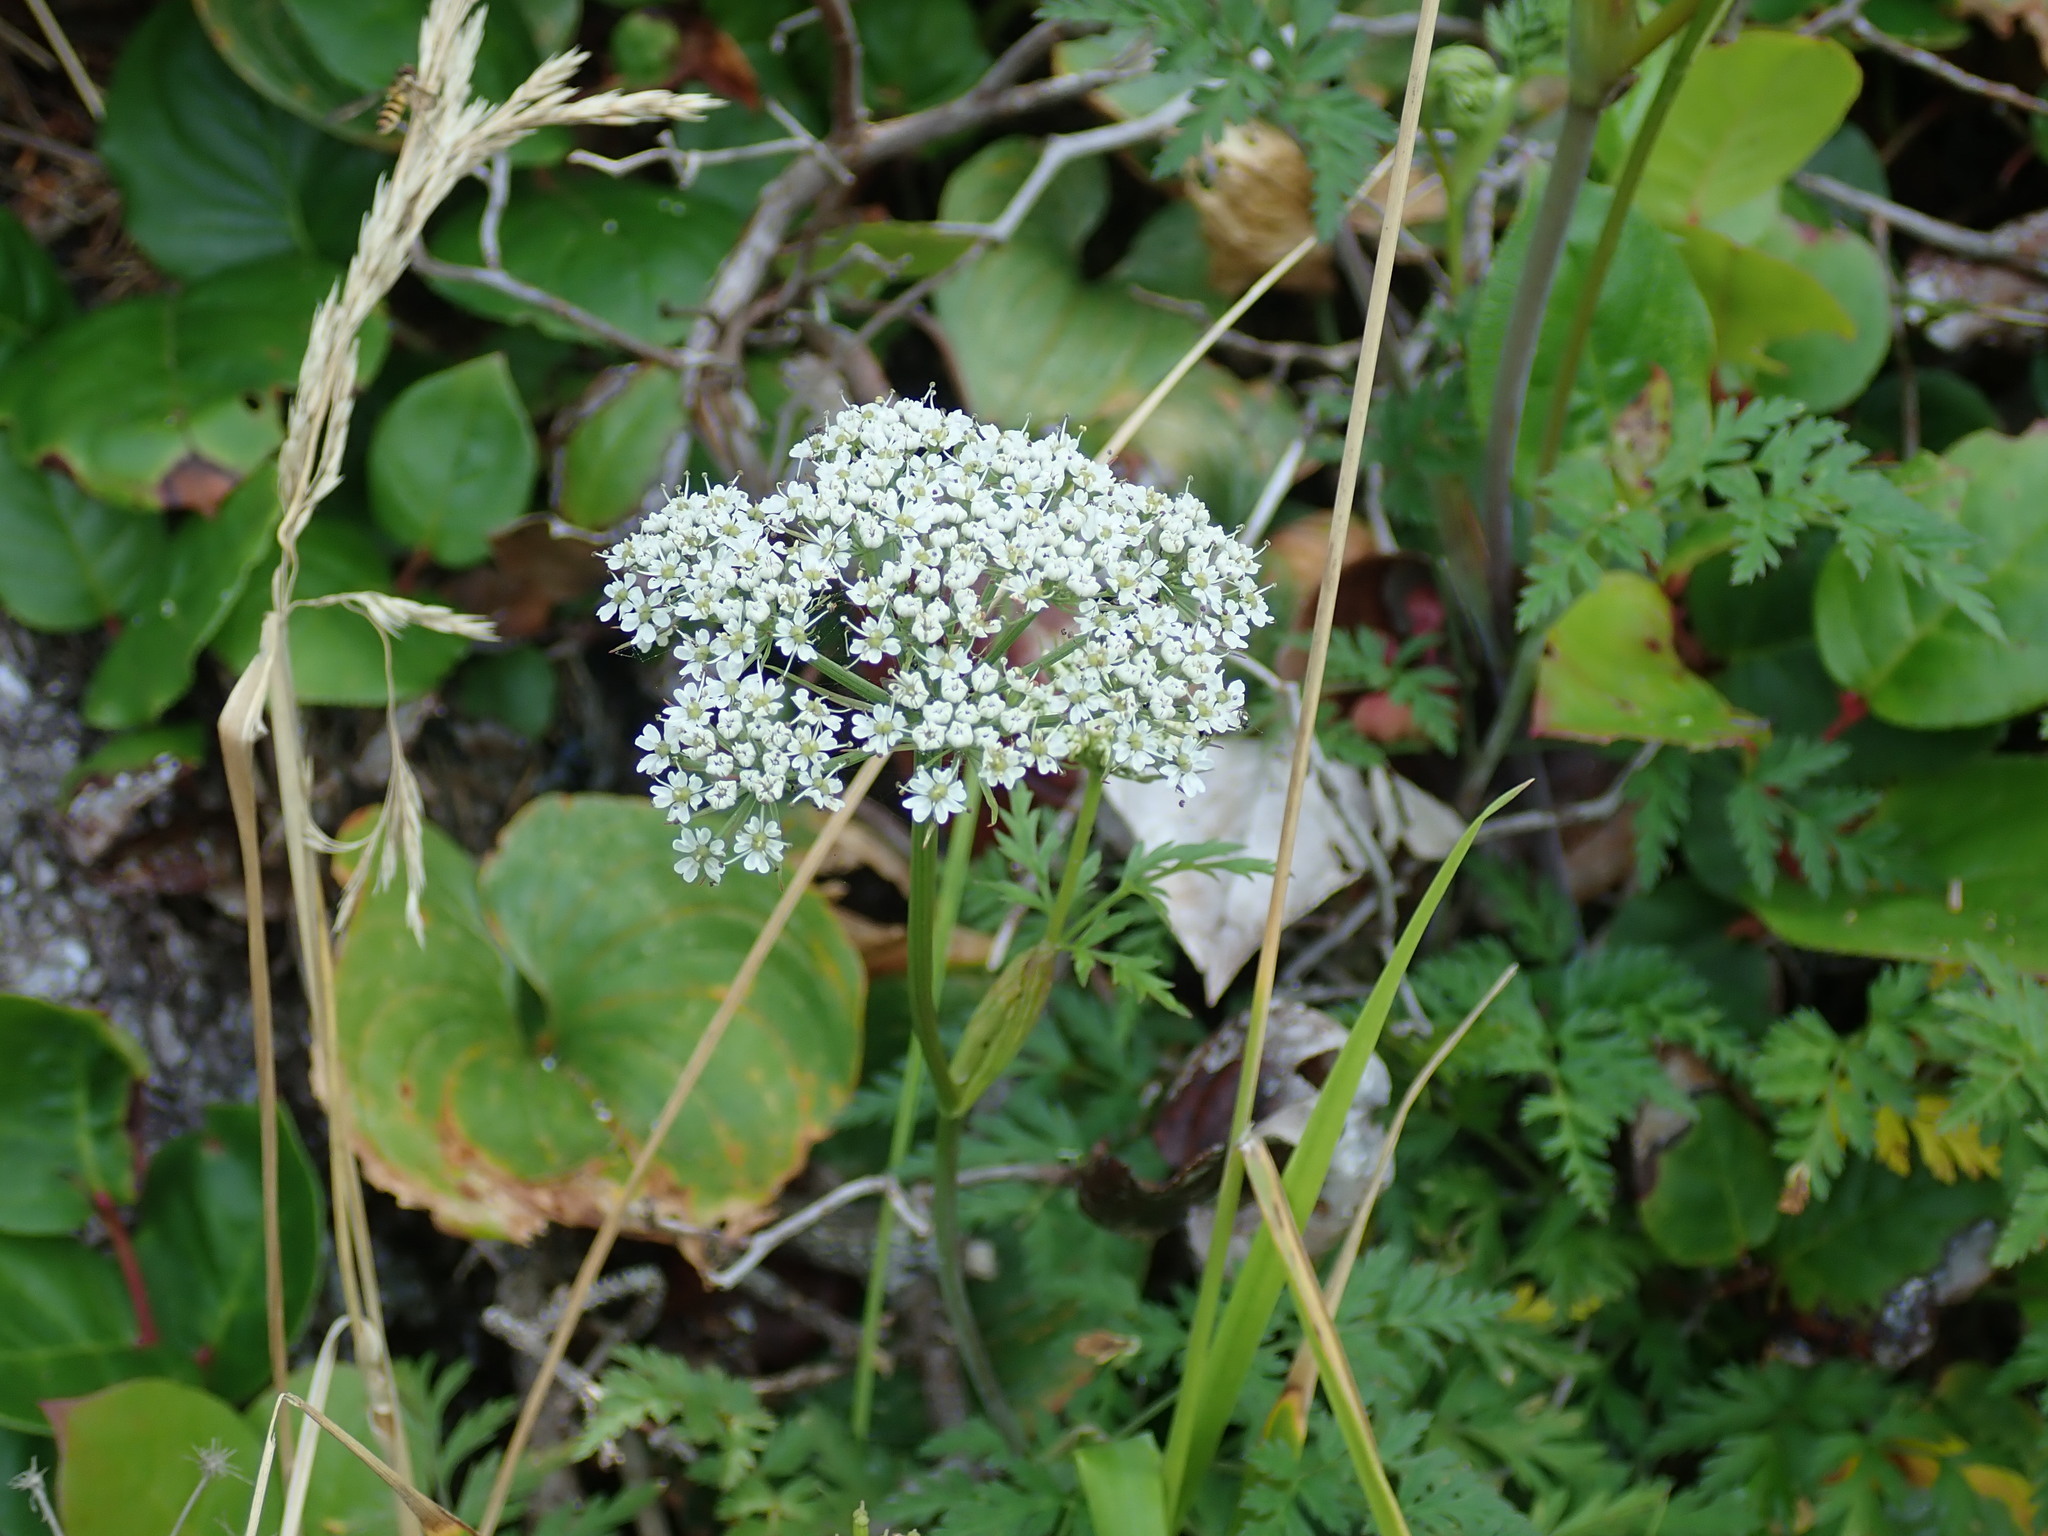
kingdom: Plantae
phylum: Tracheophyta
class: Magnoliopsida
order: Apiales
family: Apiaceae
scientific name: Apiaceae
